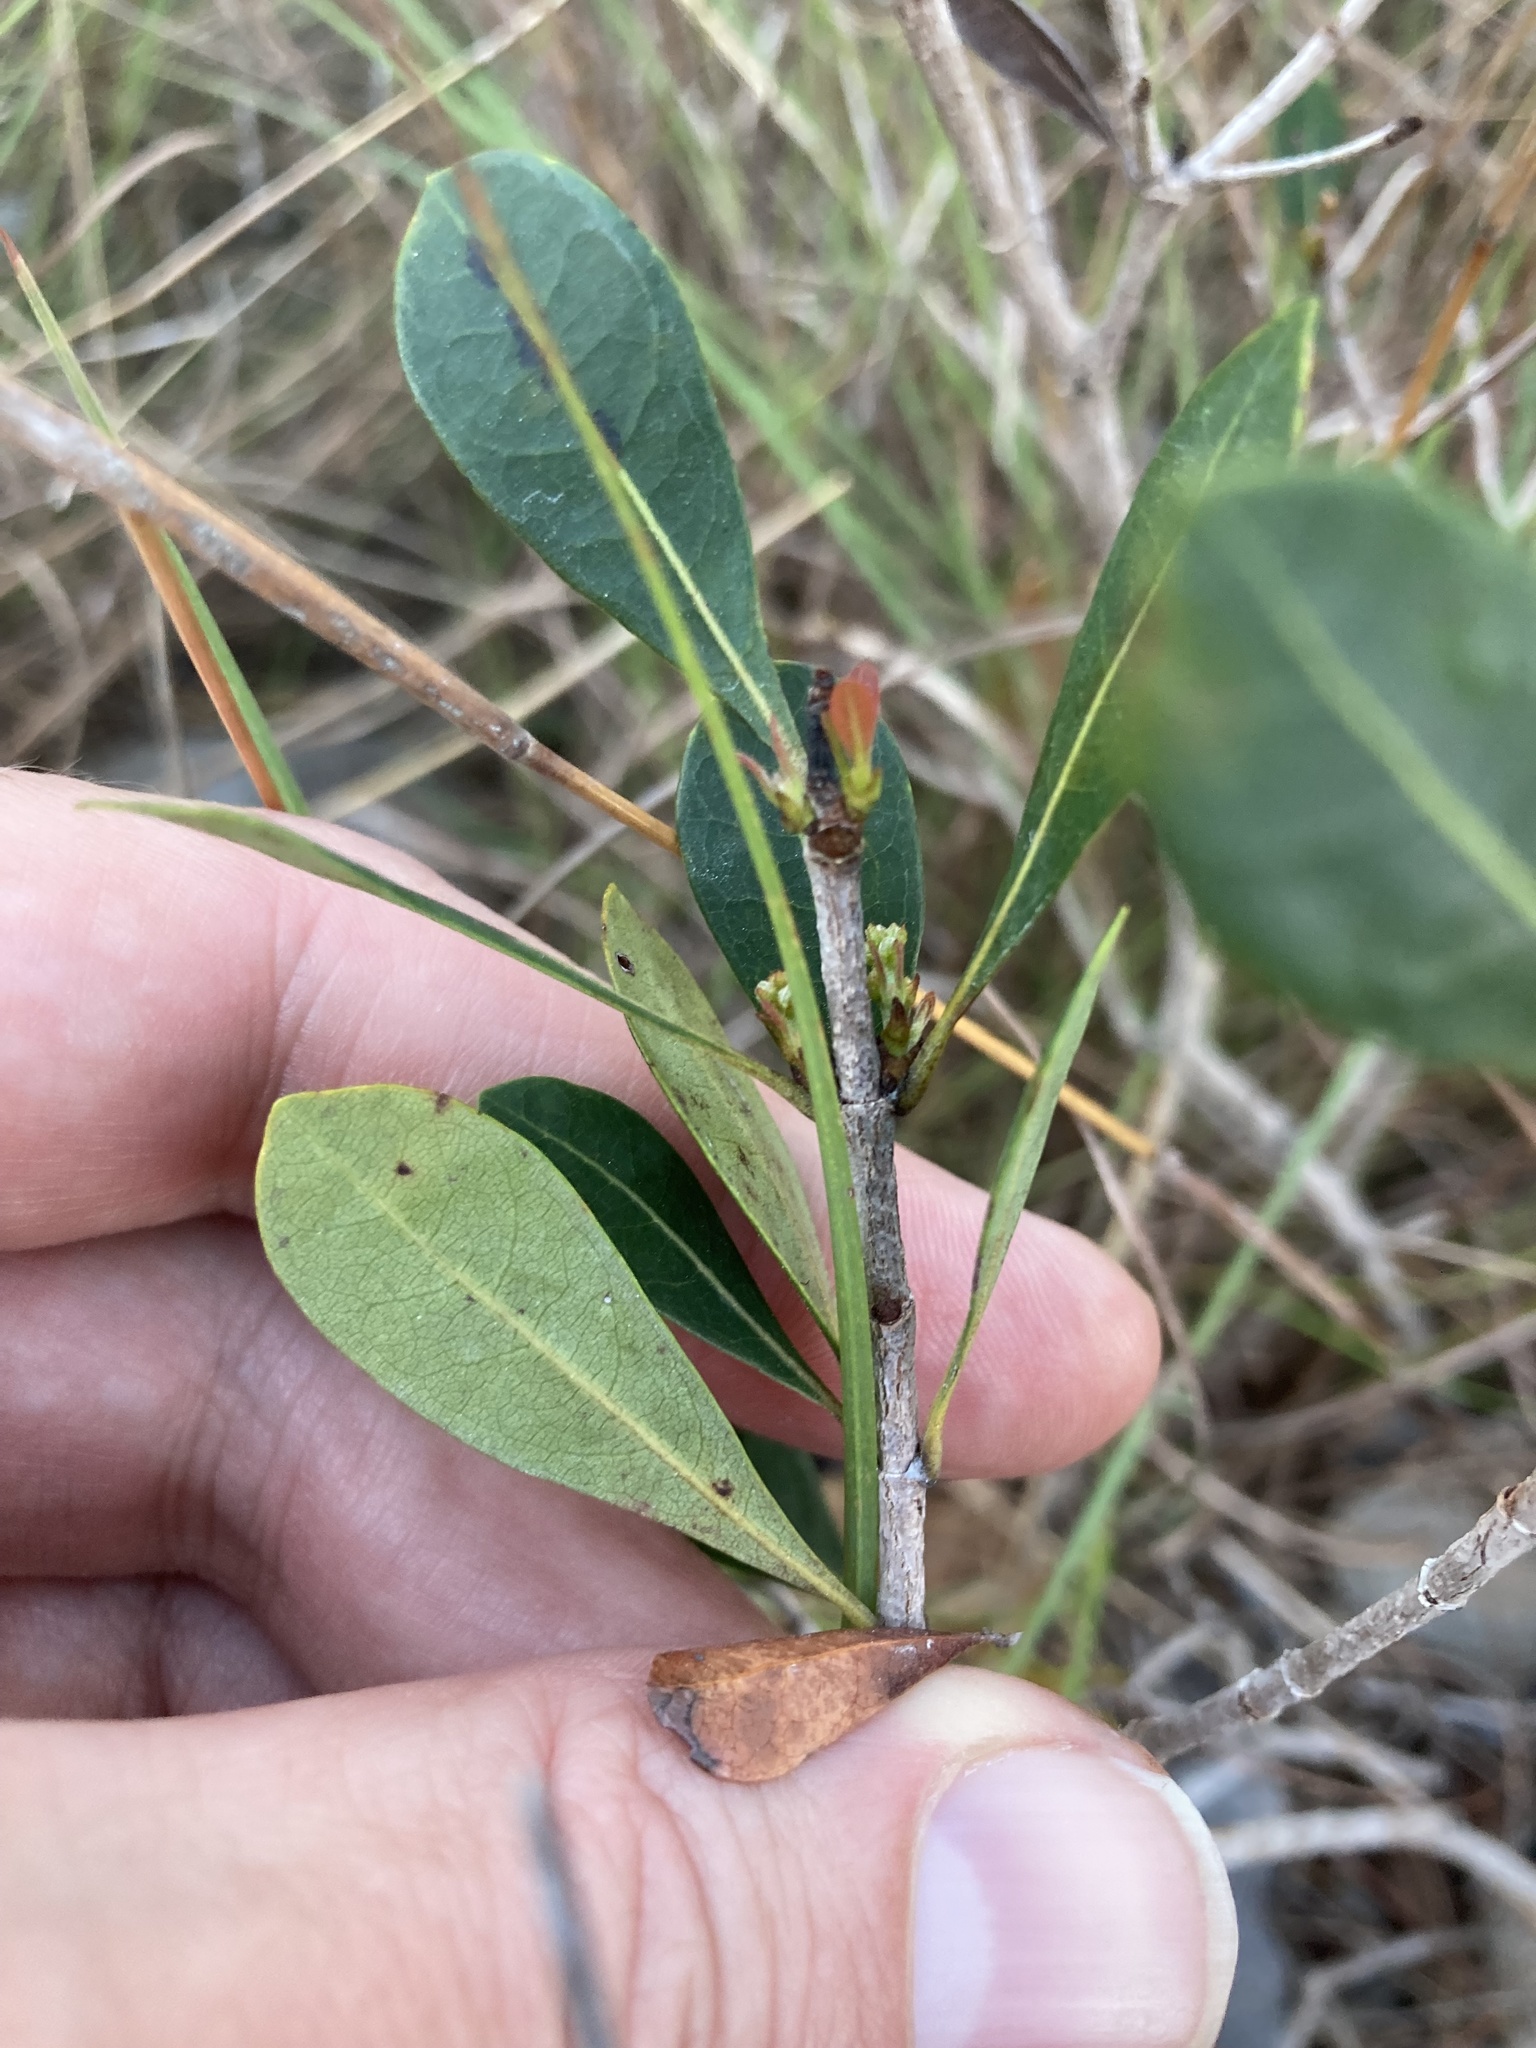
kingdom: Plantae
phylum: Tracheophyta
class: Magnoliopsida
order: Malpighiales
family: Malpighiaceae
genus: Byrsonima
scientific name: Byrsonima lucida
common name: Clam-cherry
